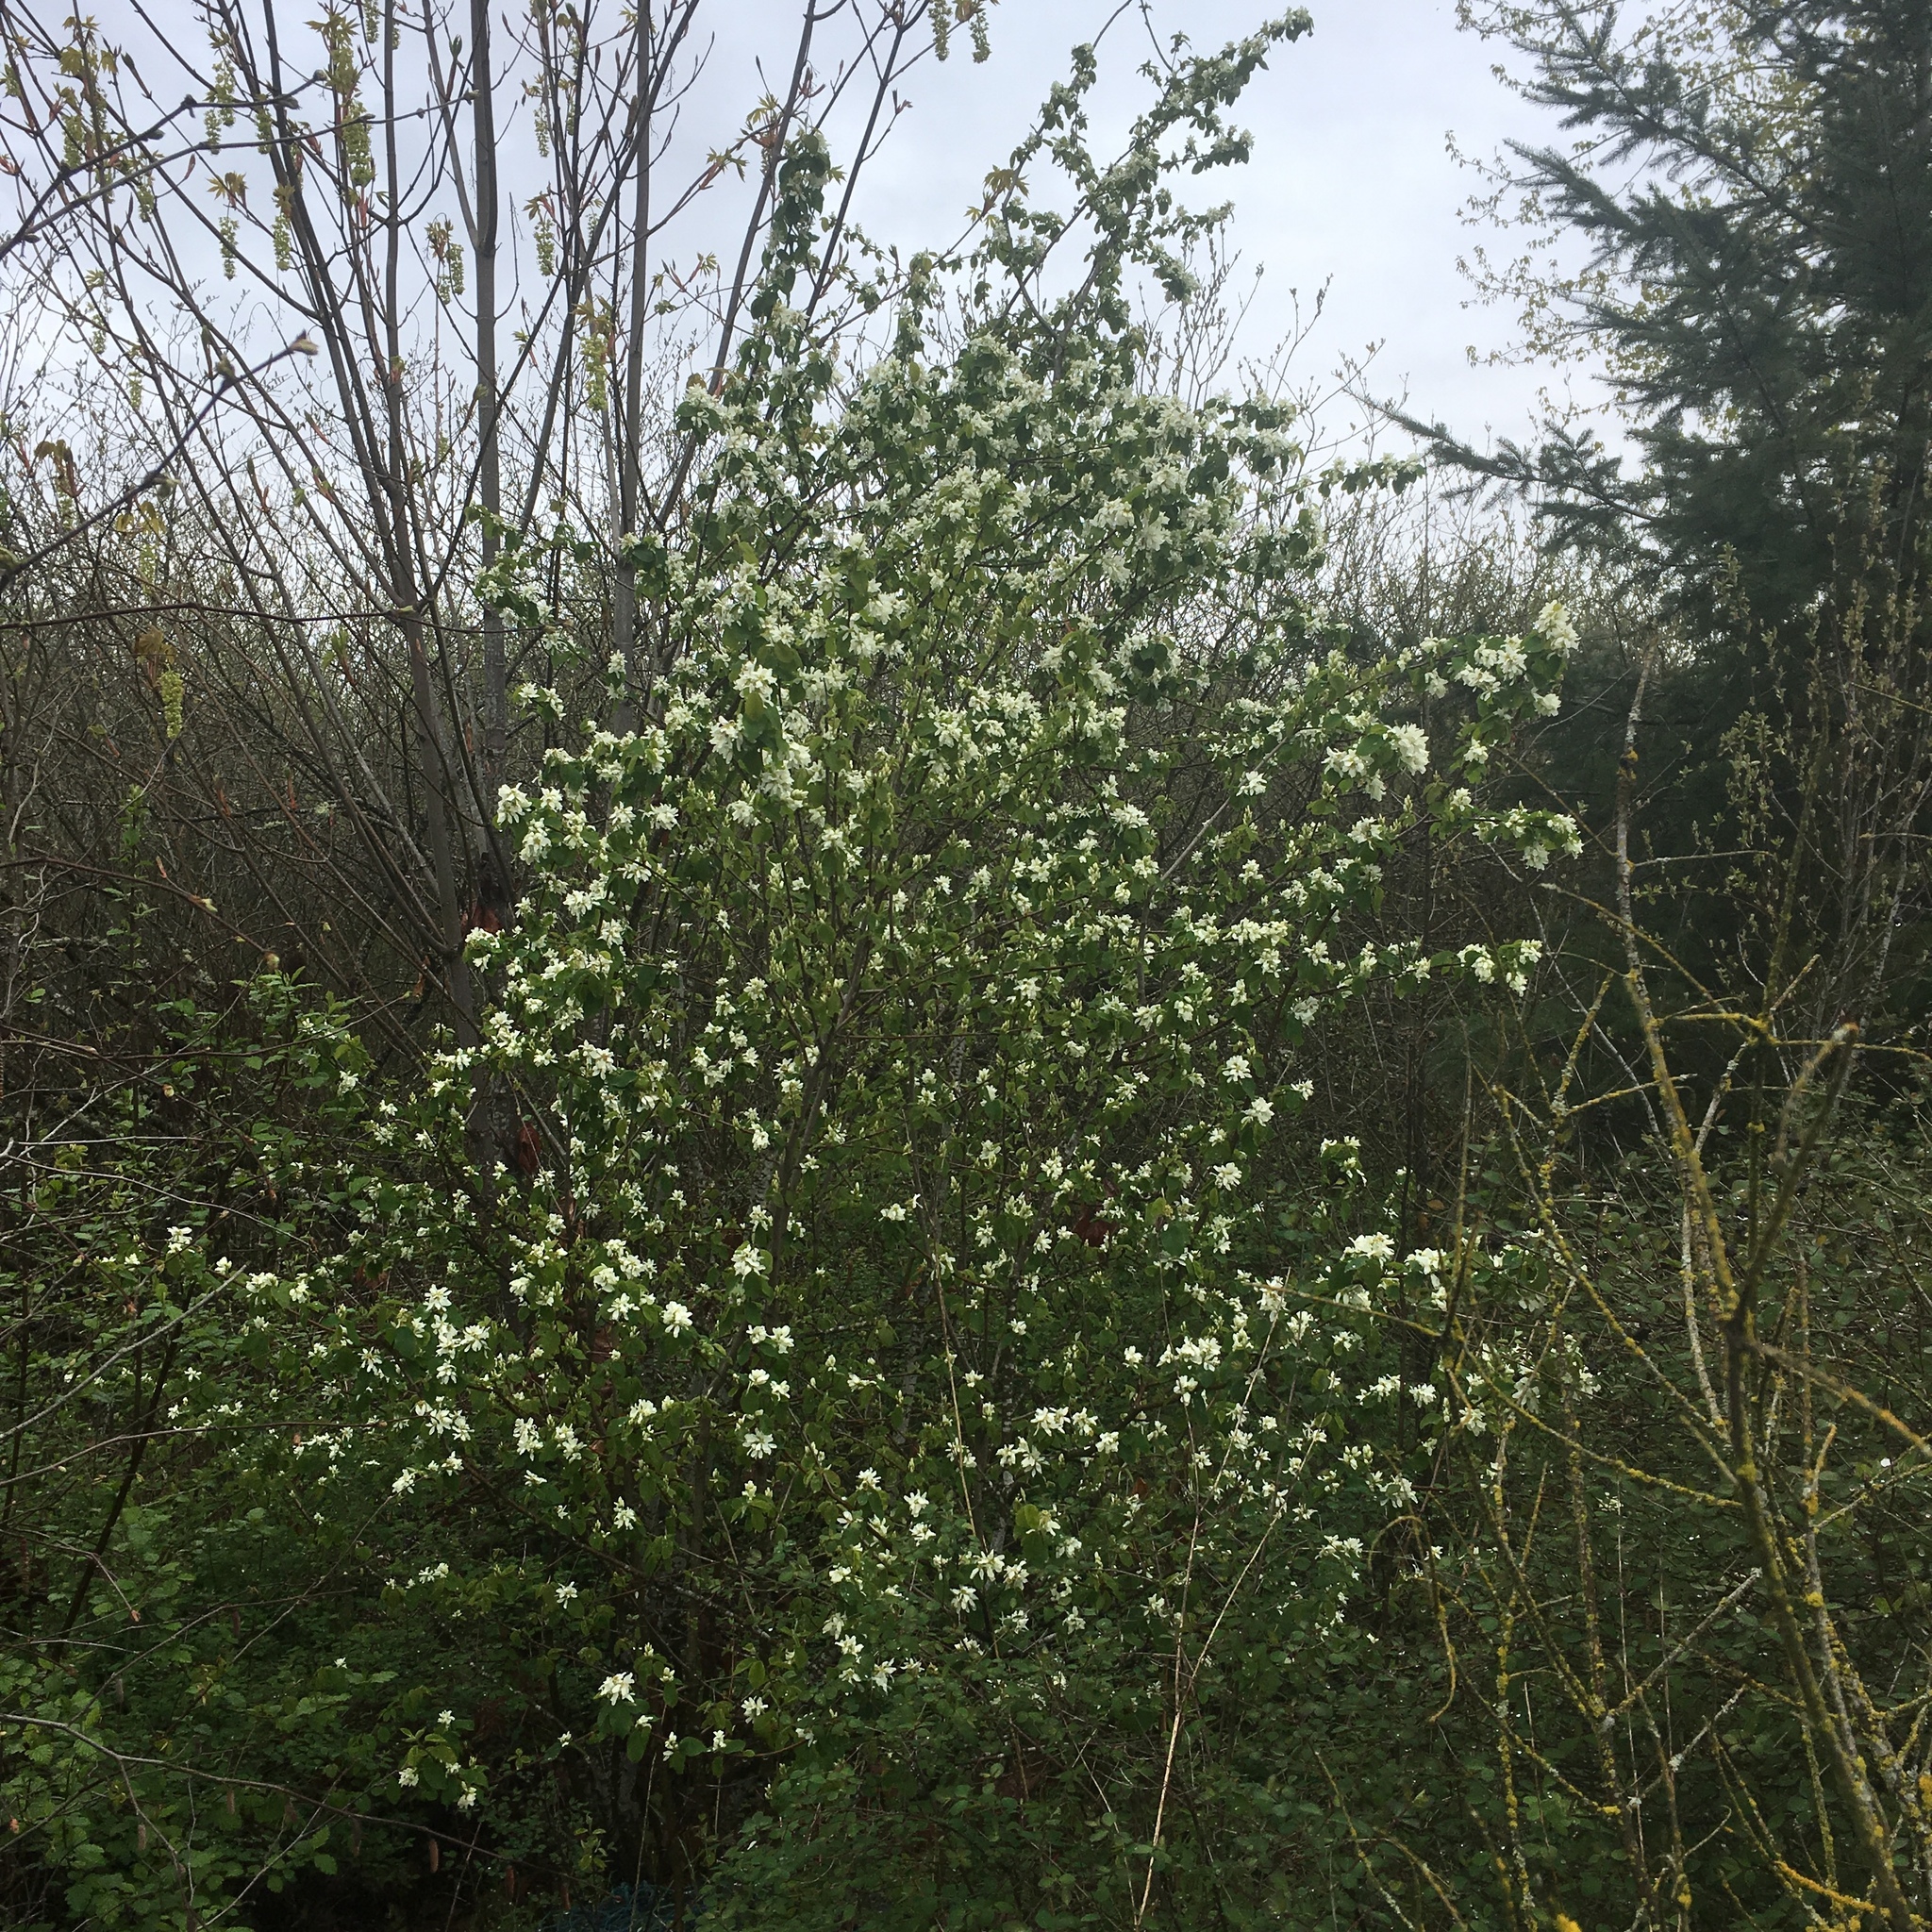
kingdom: Plantae
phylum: Tracheophyta
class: Magnoliopsida
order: Rosales
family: Rosaceae
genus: Amelanchier
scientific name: Amelanchier alnifolia
